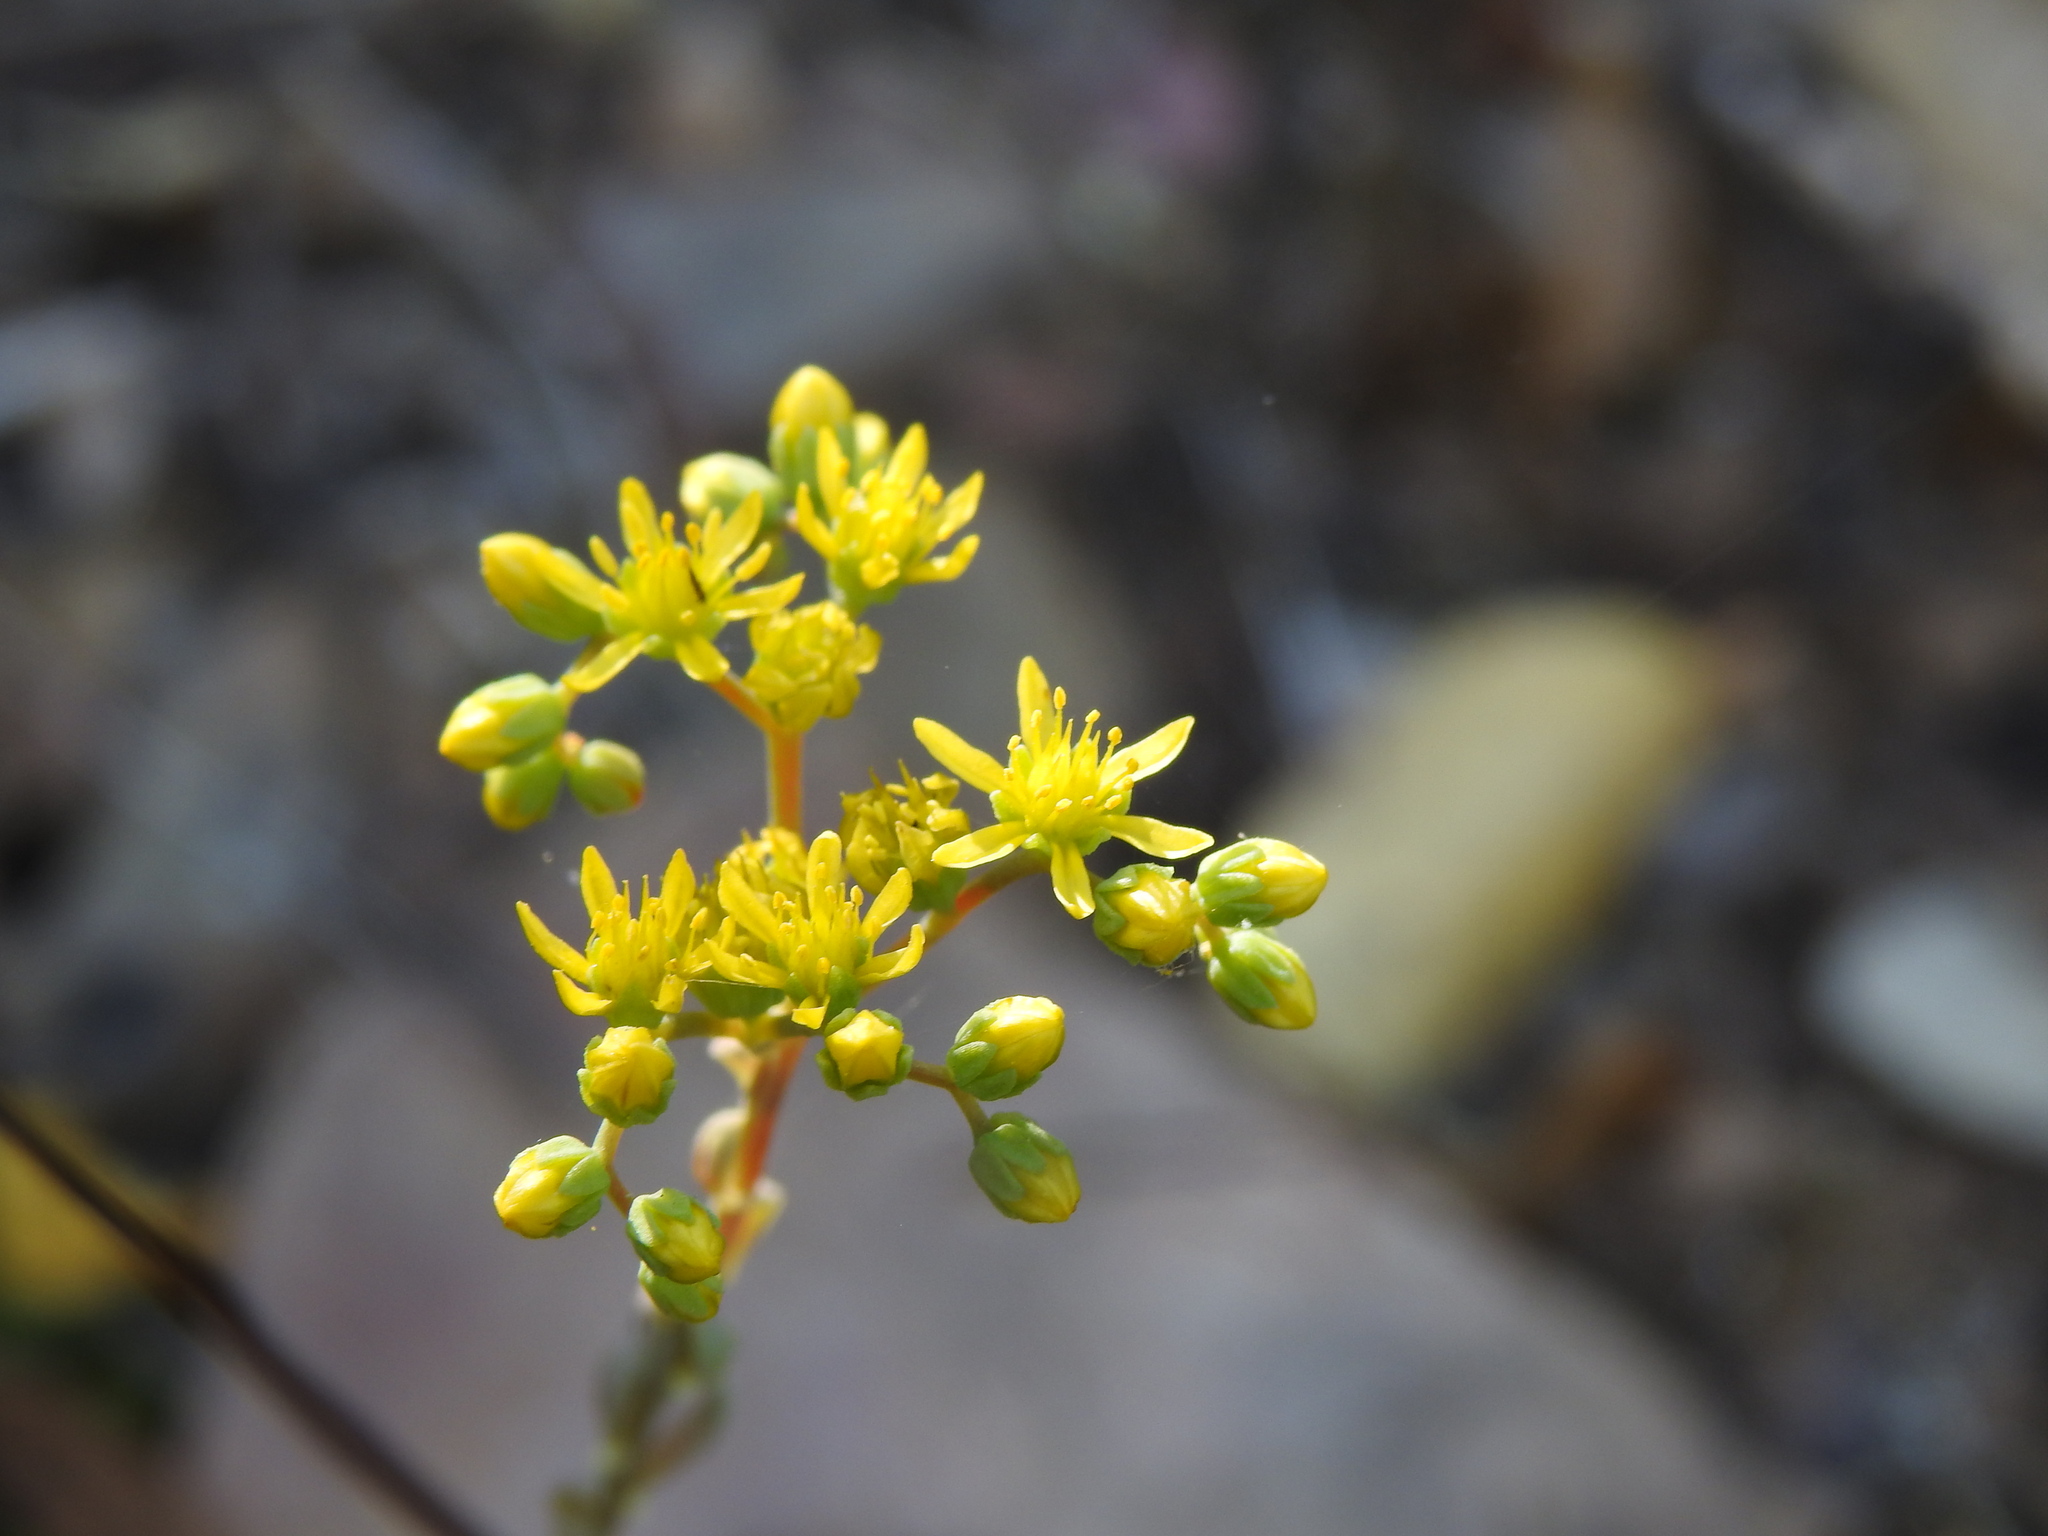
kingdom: Plantae
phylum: Tracheophyta
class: Magnoliopsida
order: Saxifragales
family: Crassulaceae
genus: Petrosedum
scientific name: Petrosedum forsterianum
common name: Forster's stonecrop
